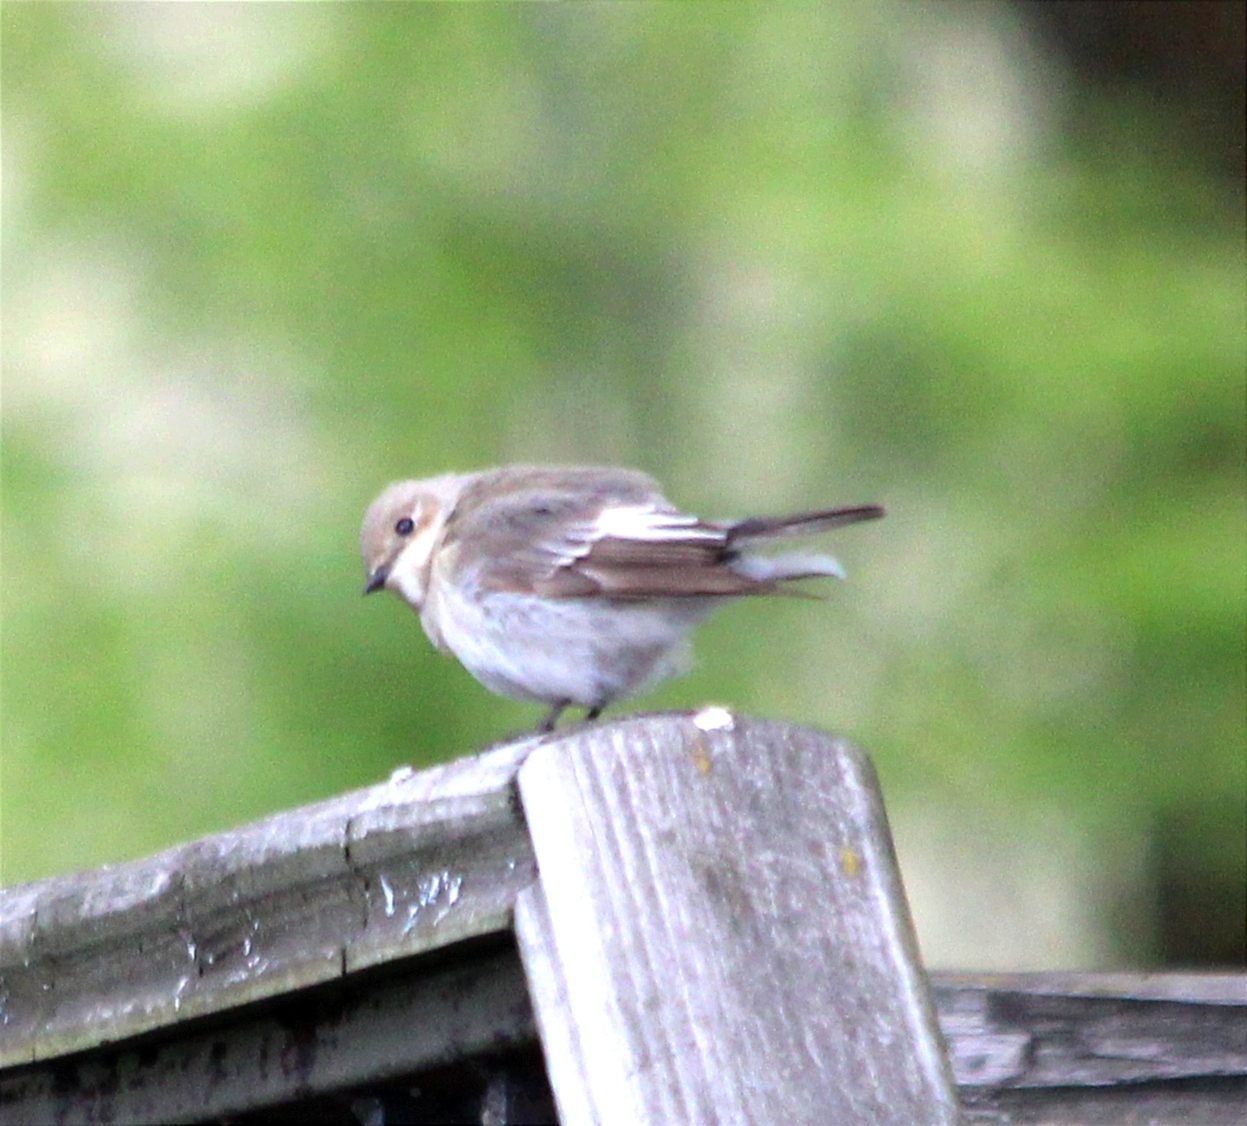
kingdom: Animalia
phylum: Chordata
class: Aves
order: Passeriformes
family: Muscicapidae
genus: Ficedula
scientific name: Ficedula hypoleuca
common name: European pied flycatcher
